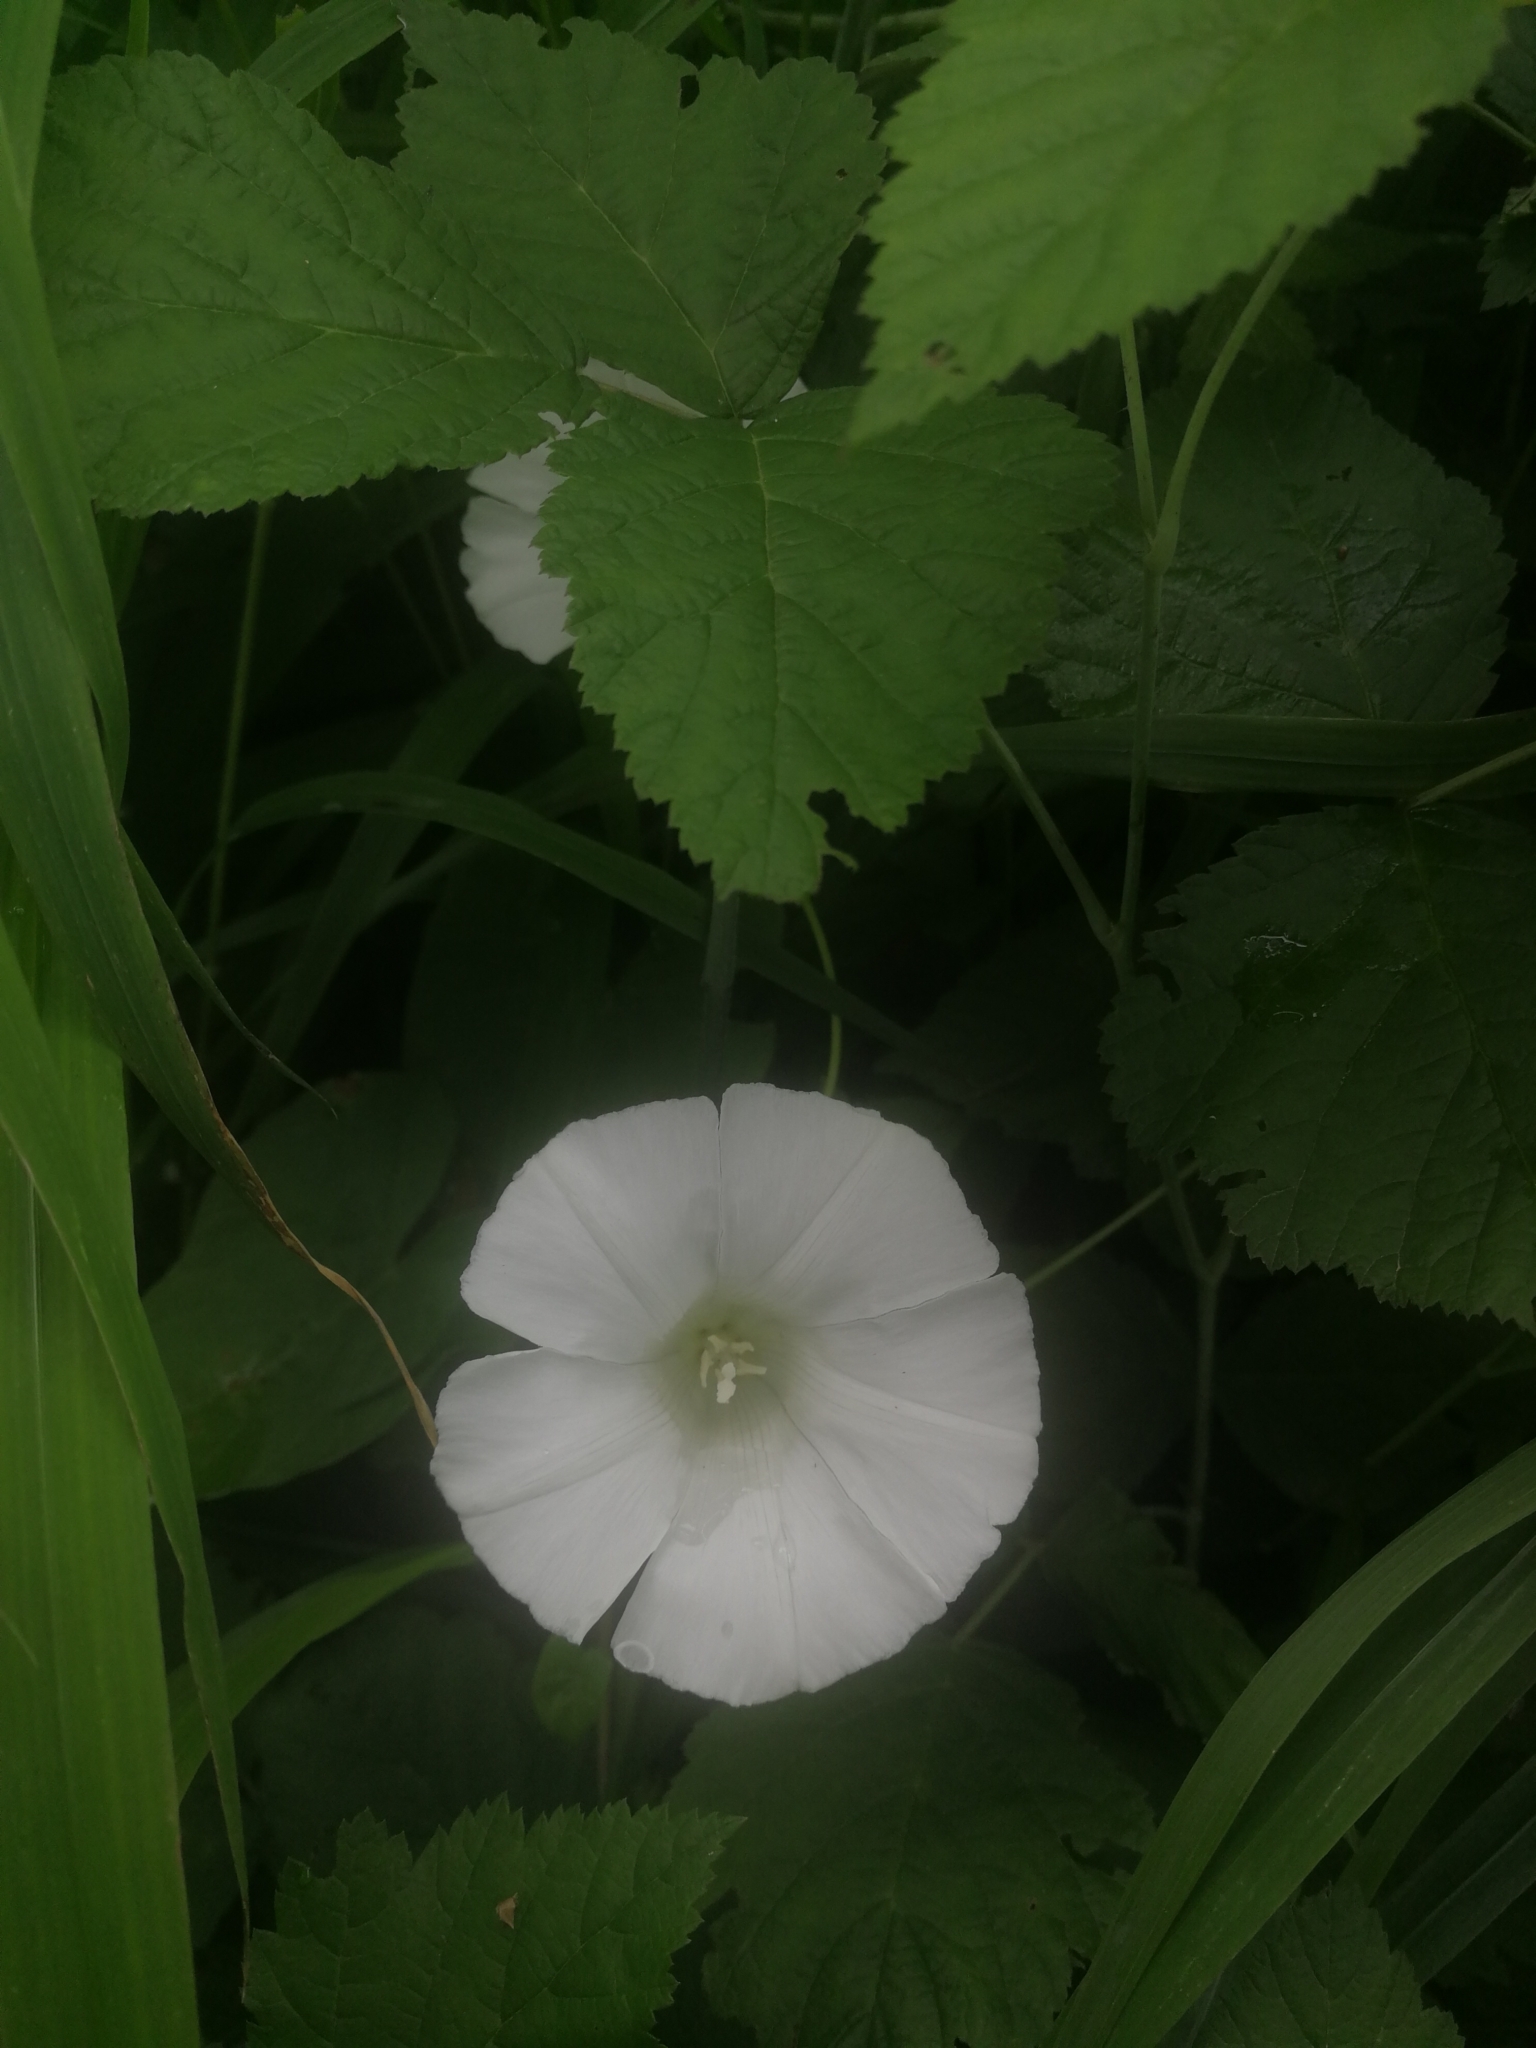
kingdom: Plantae
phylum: Tracheophyta
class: Magnoliopsida
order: Solanales
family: Convolvulaceae
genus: Calystegia
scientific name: Calystegia sepium
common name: Hedge bindweed
